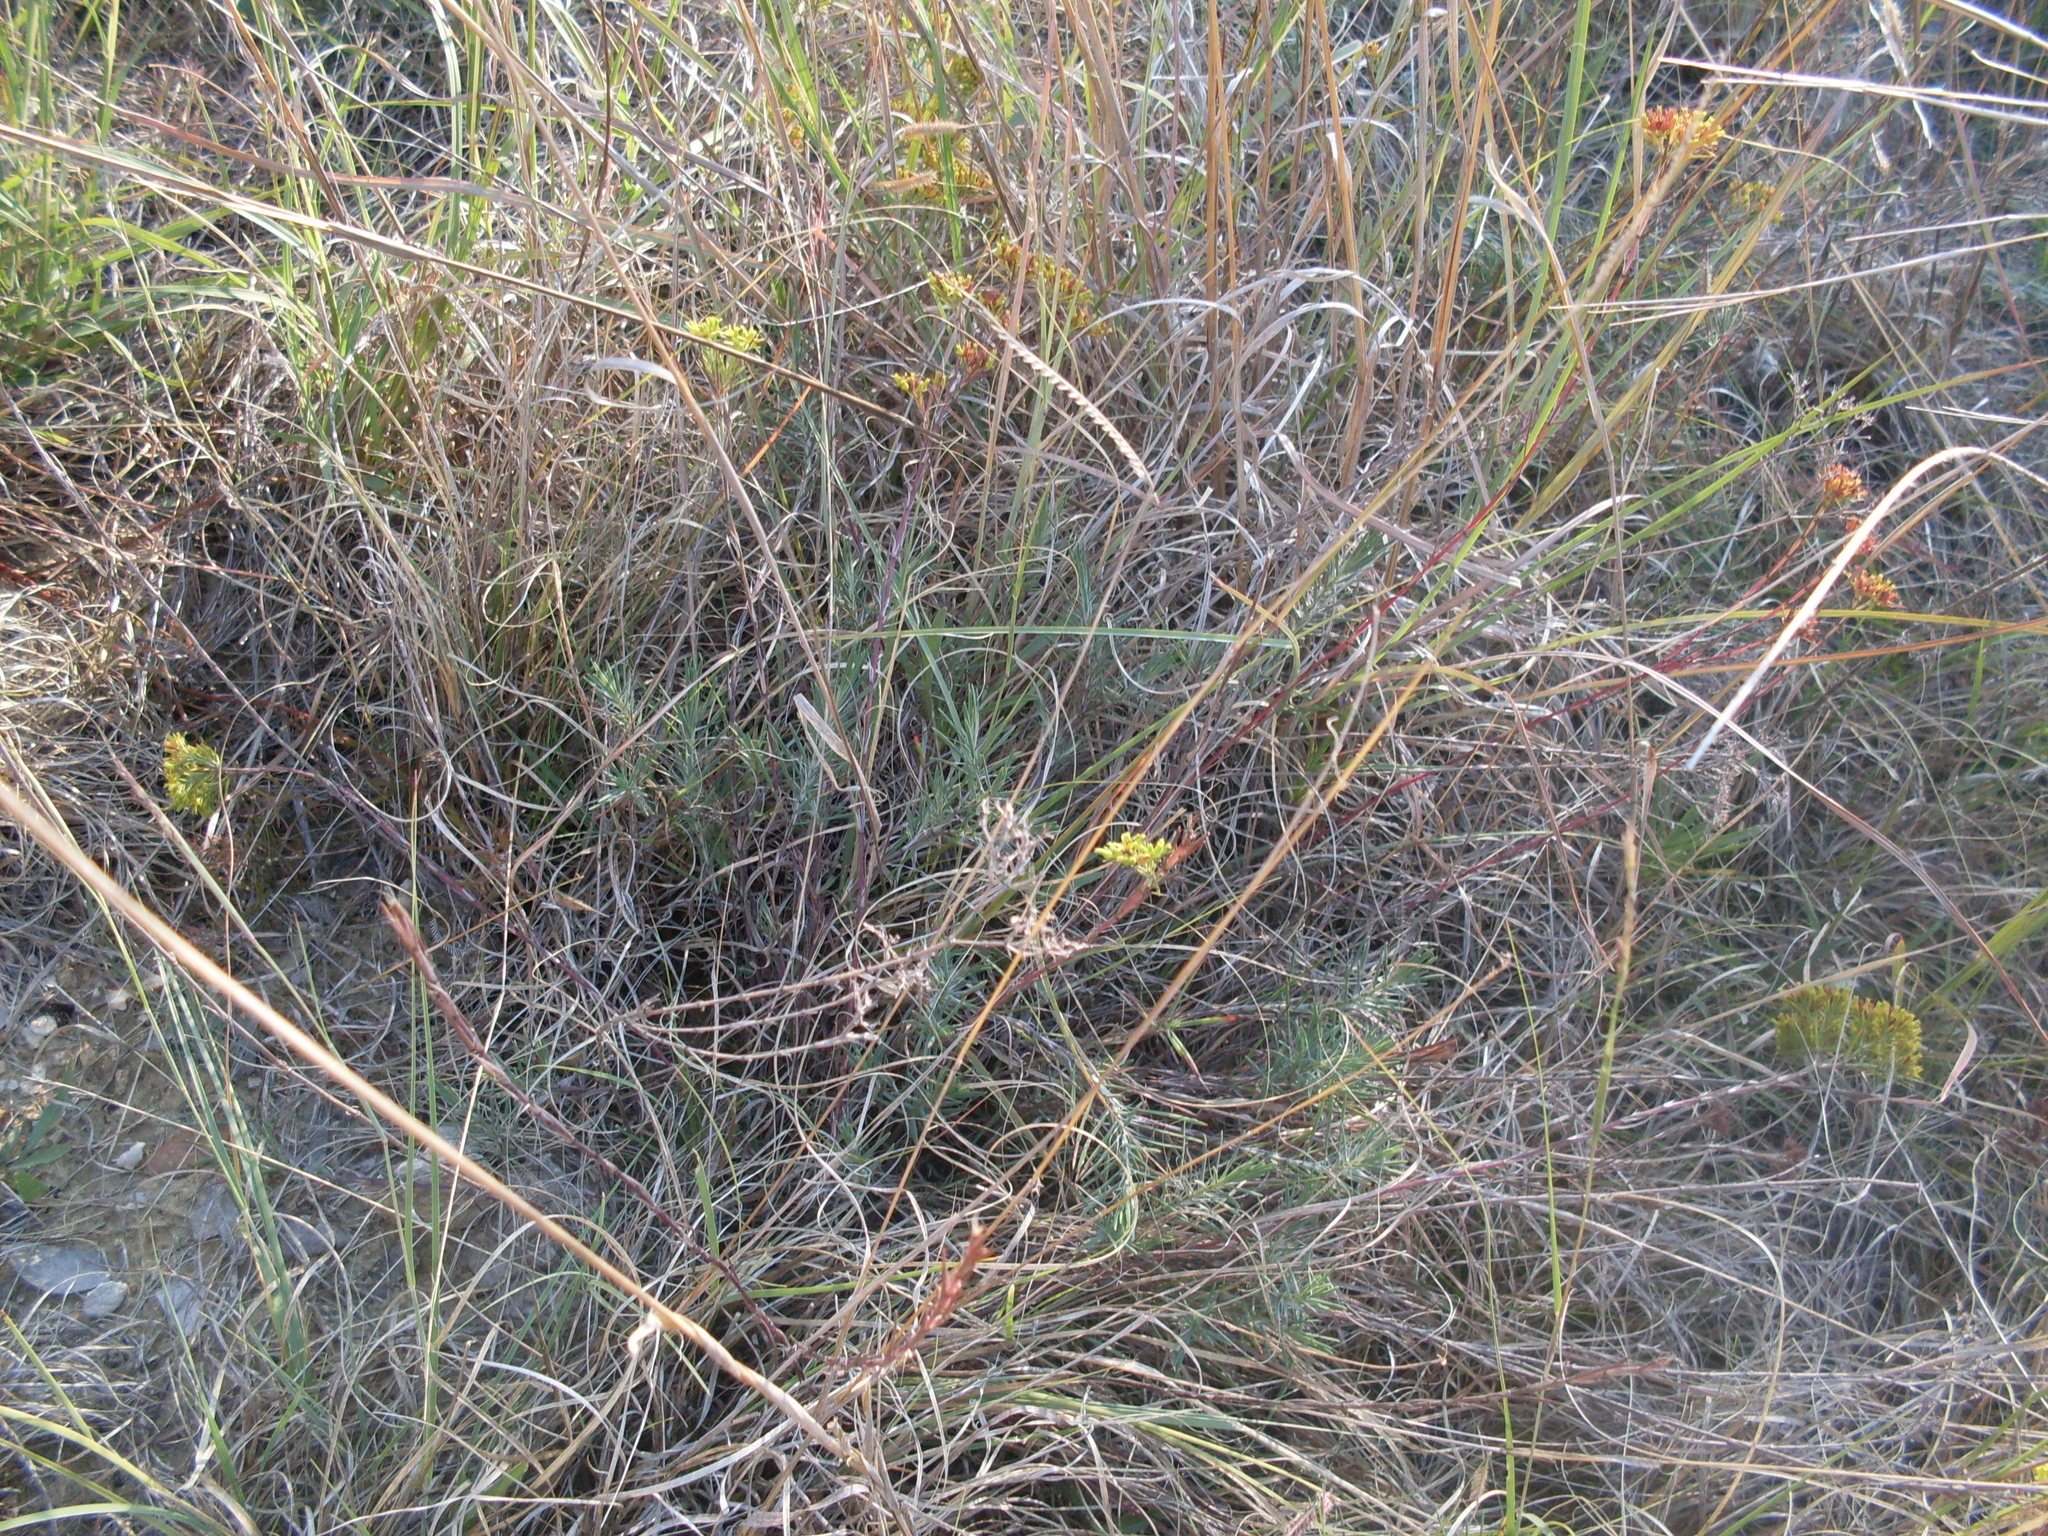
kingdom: Plantae
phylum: Tracheophyta
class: Magnoliopsida
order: Caryophyllales
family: Caryophyllaceae
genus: Paronychia
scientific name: Paronychia virginica
